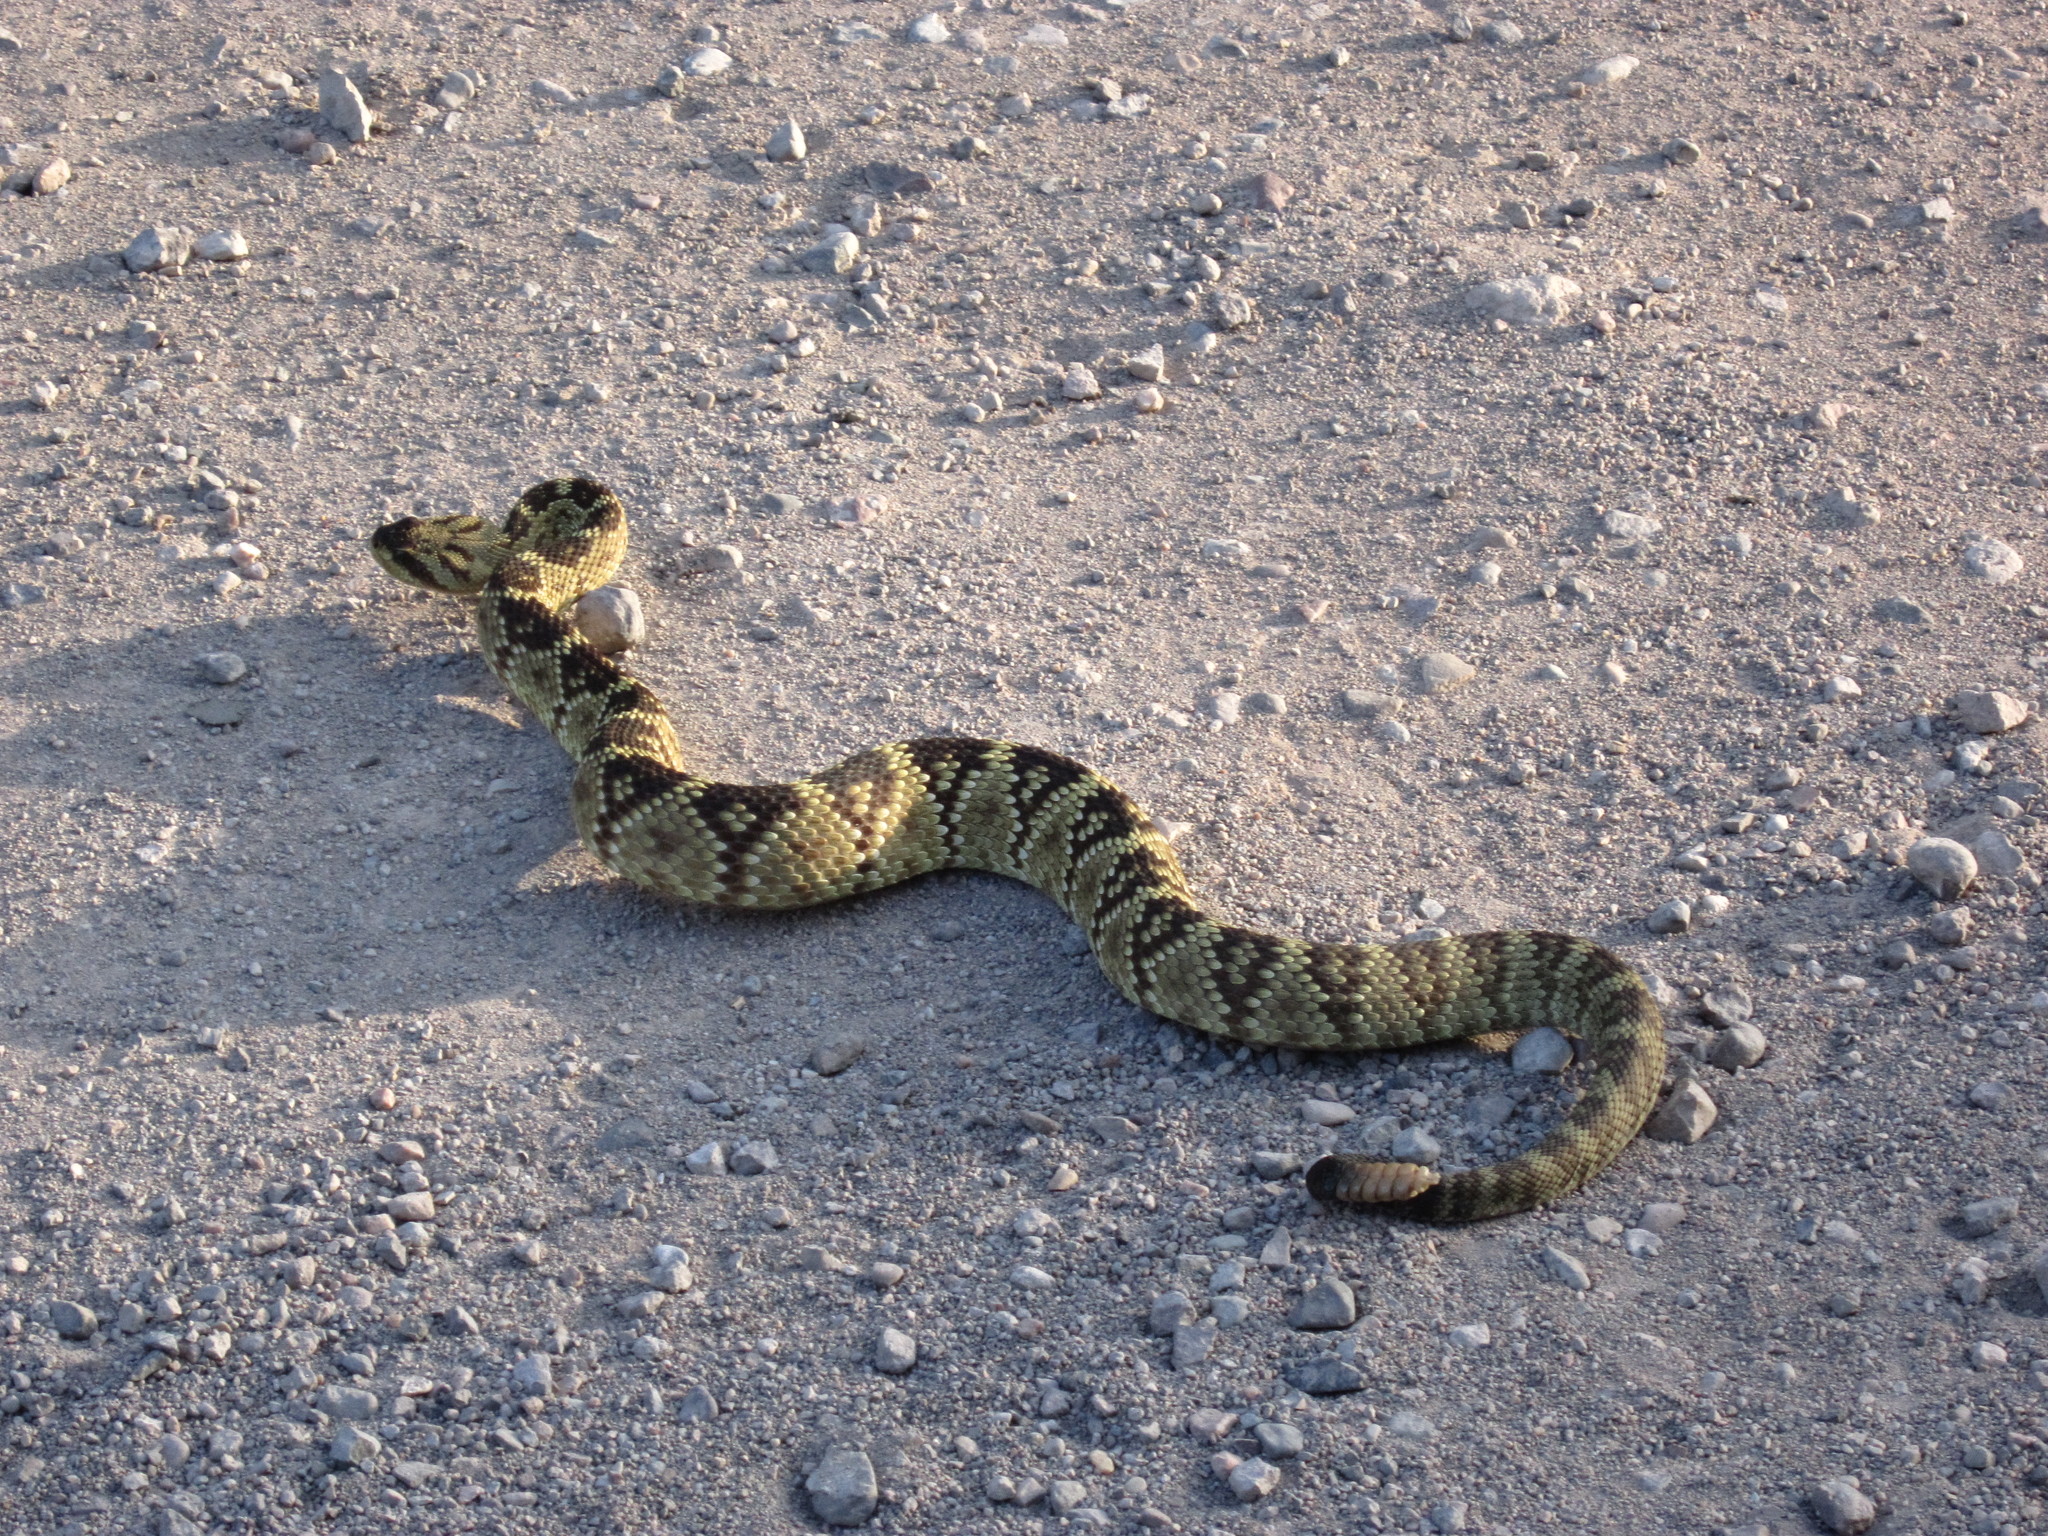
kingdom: Animalia
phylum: Chordata
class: Squamata
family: Viperidae
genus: Crotalus
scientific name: Crotalus molossus
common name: Black tailed rattlesnake
